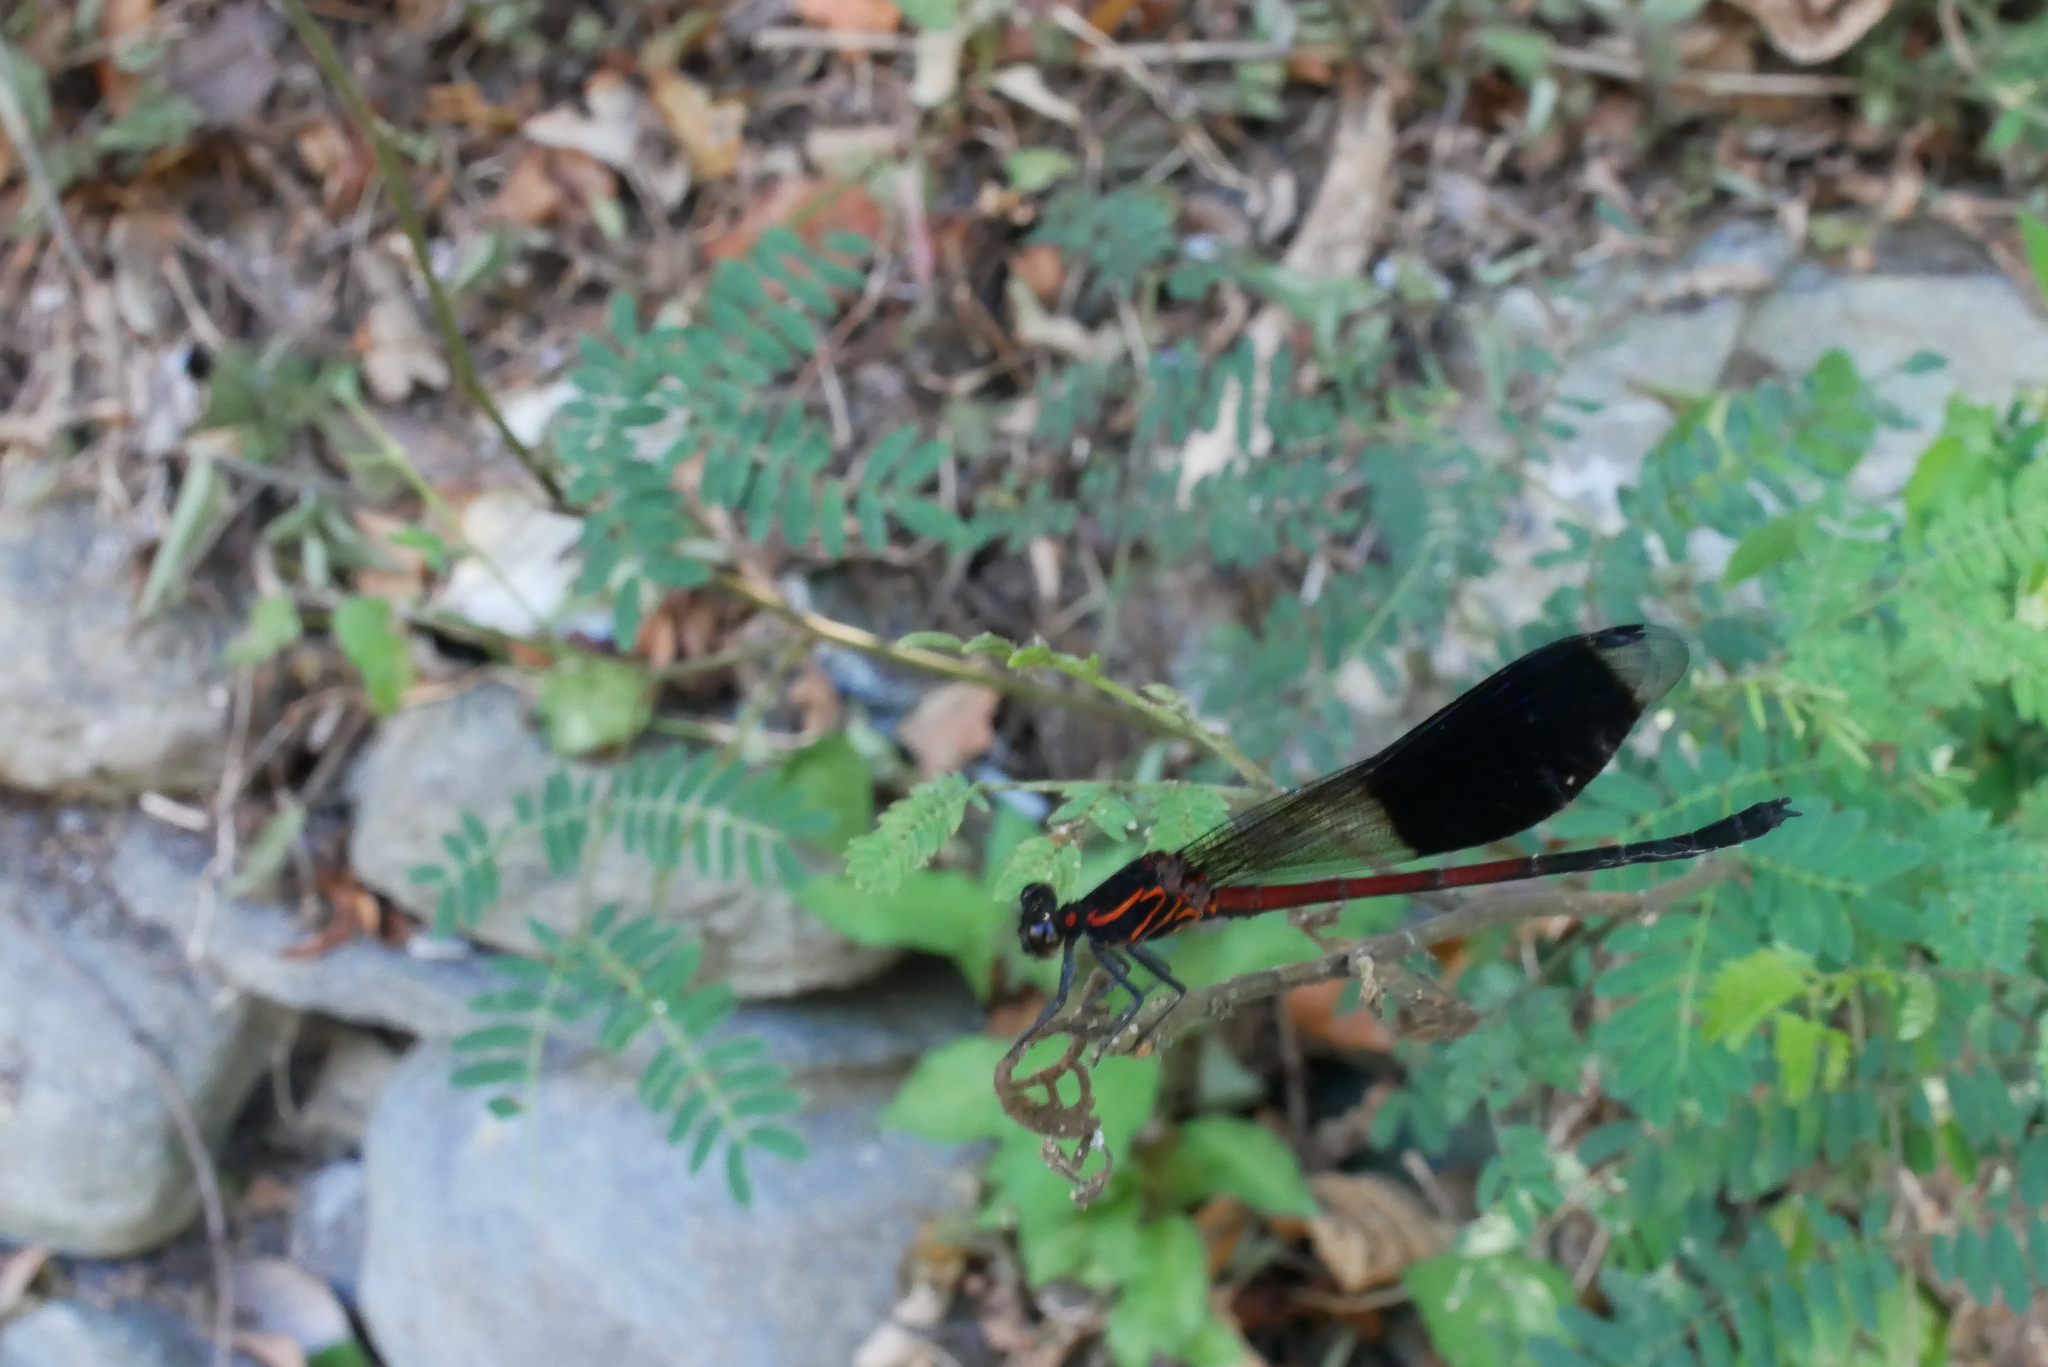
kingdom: Animalia
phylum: Arthropoda
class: Insecta
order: Odonata
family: Euphaeidae
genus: Euphaea
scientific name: Euphaea formosa
